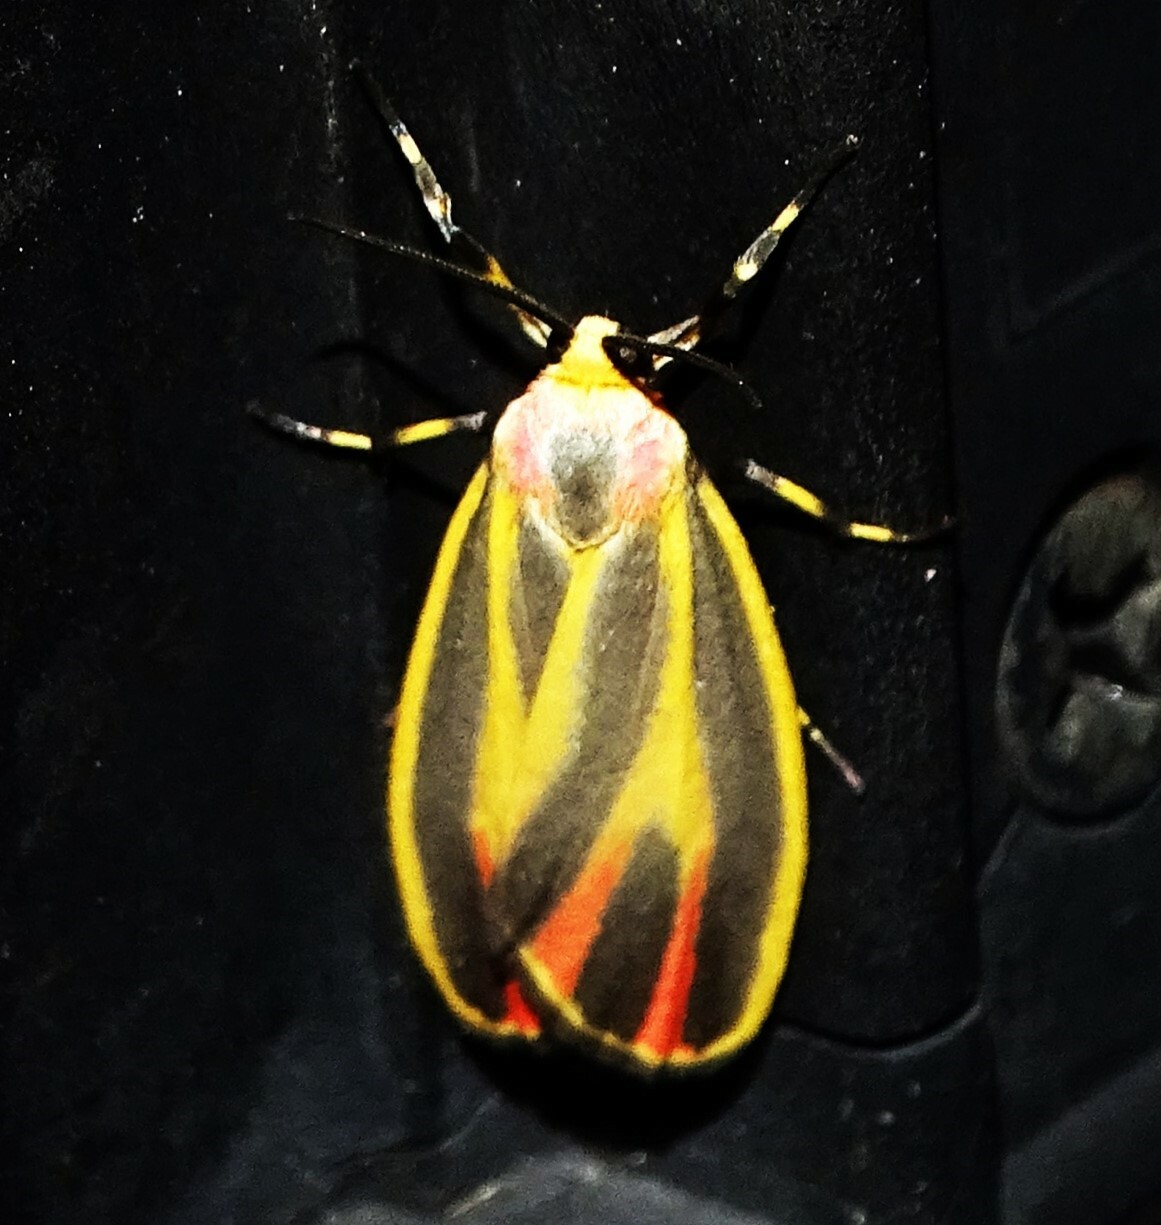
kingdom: Animalia
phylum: Arthropoda
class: Insecta
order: Lepidoptera
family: Erebidae
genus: Hypoprepia
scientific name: Hypoprepia fucosa
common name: Painted lichen moth
